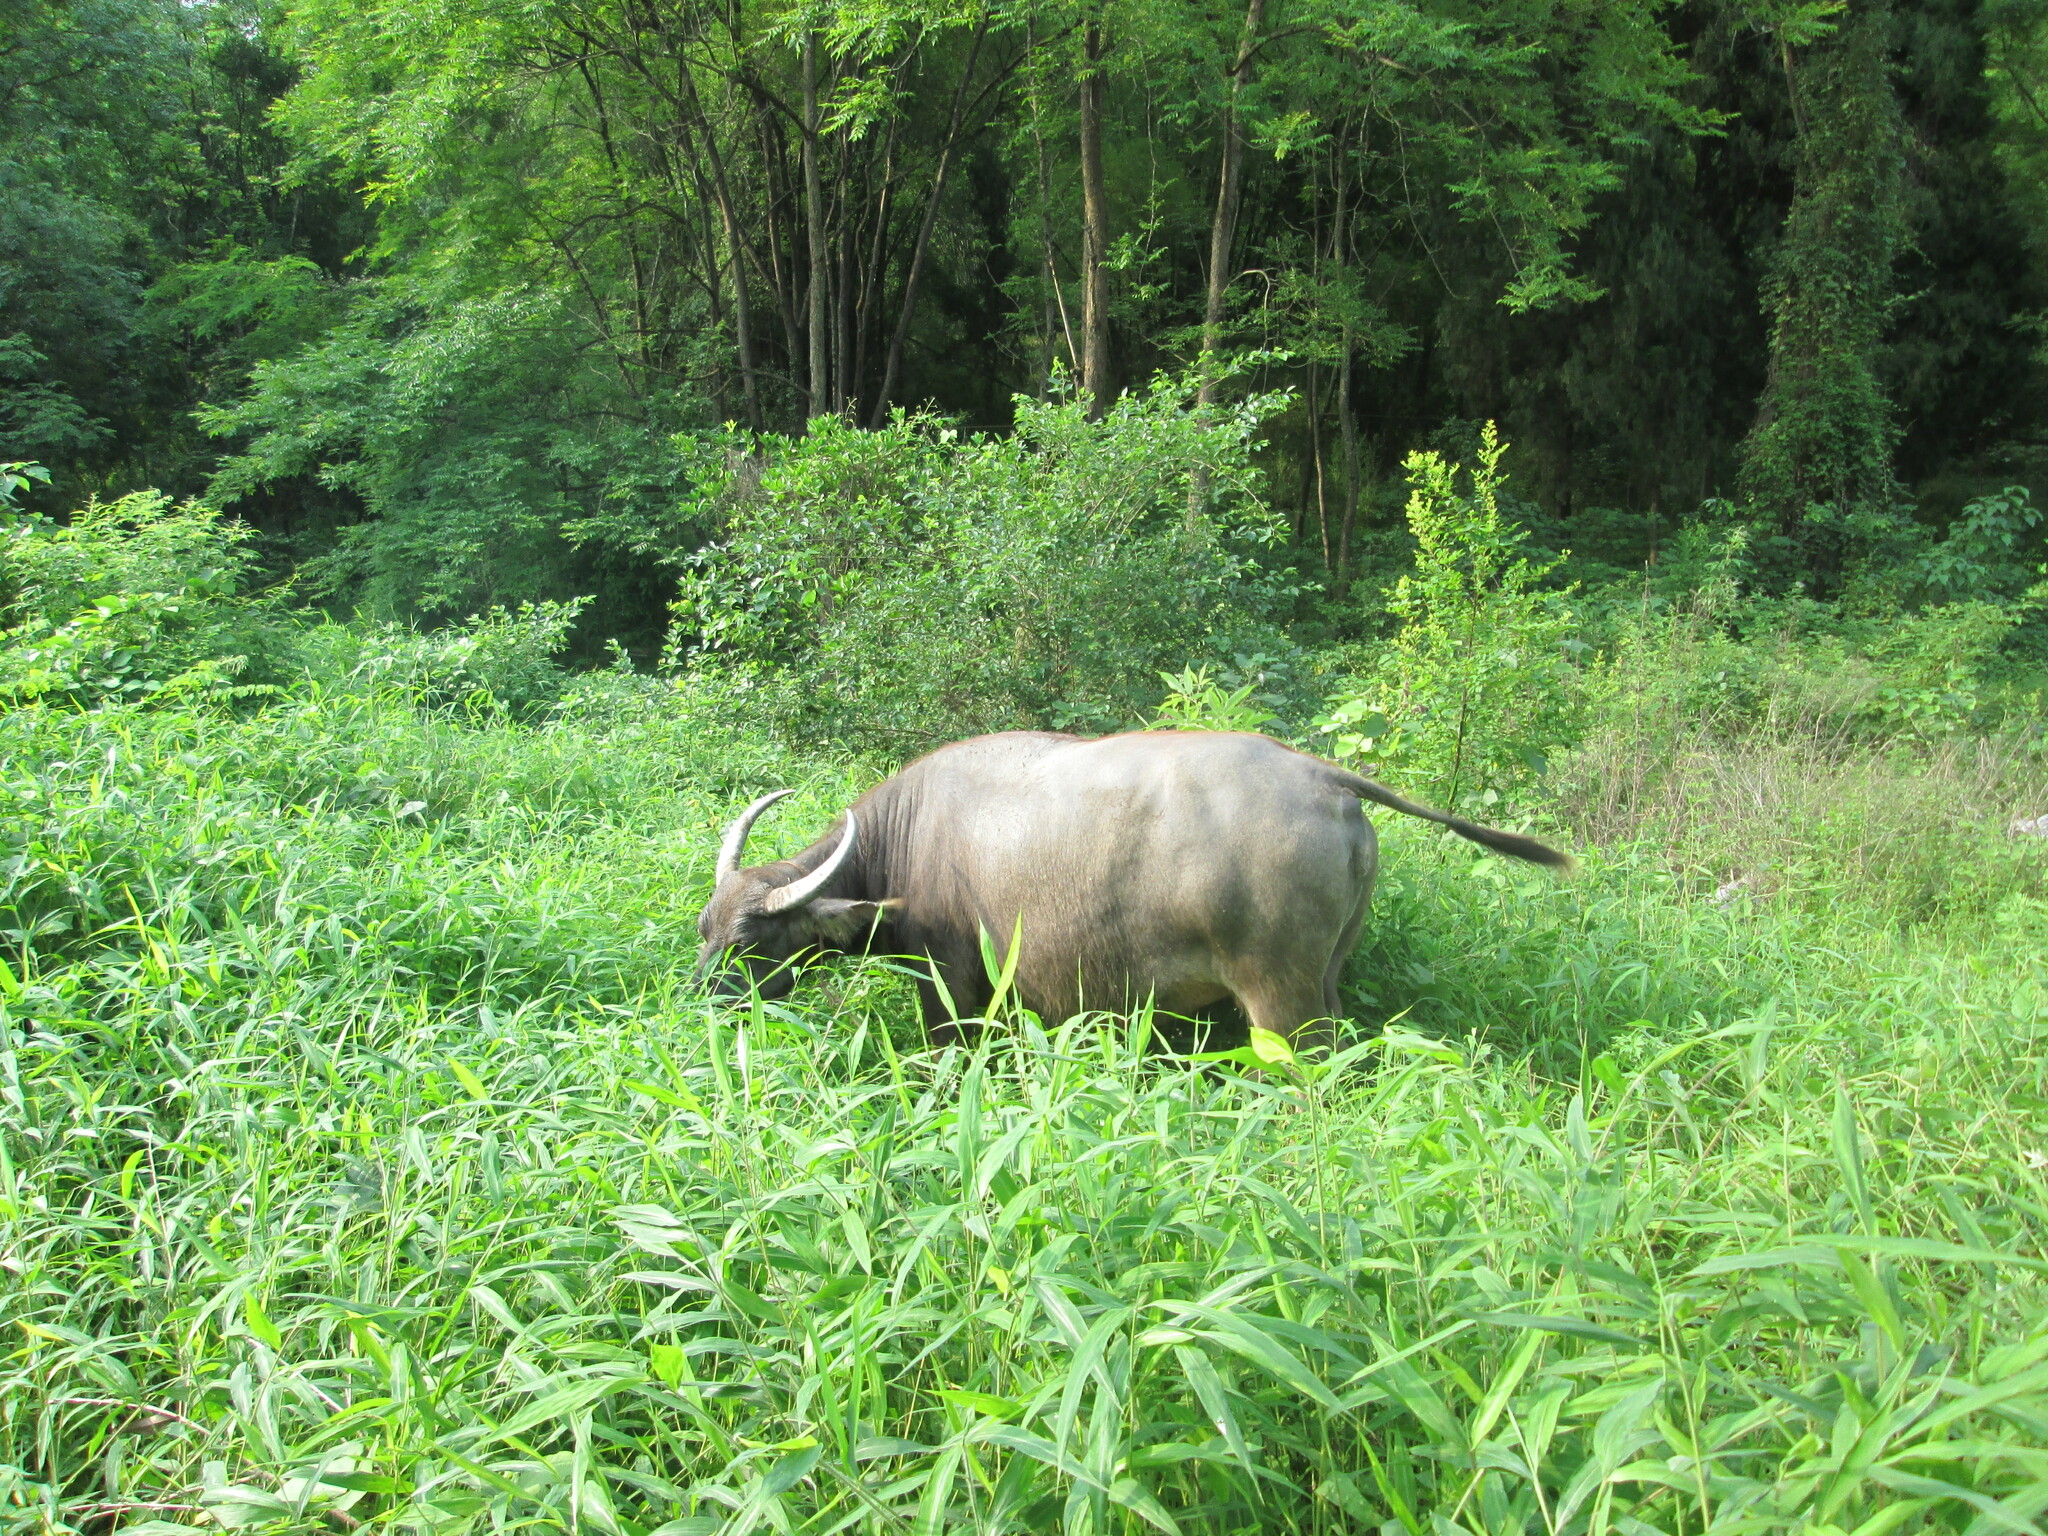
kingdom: Animalia
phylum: Chordata
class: Mammalia
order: Artiodactyla
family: Bovidae
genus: Bubalus
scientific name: Bubalus bubalis
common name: Water buffalo
